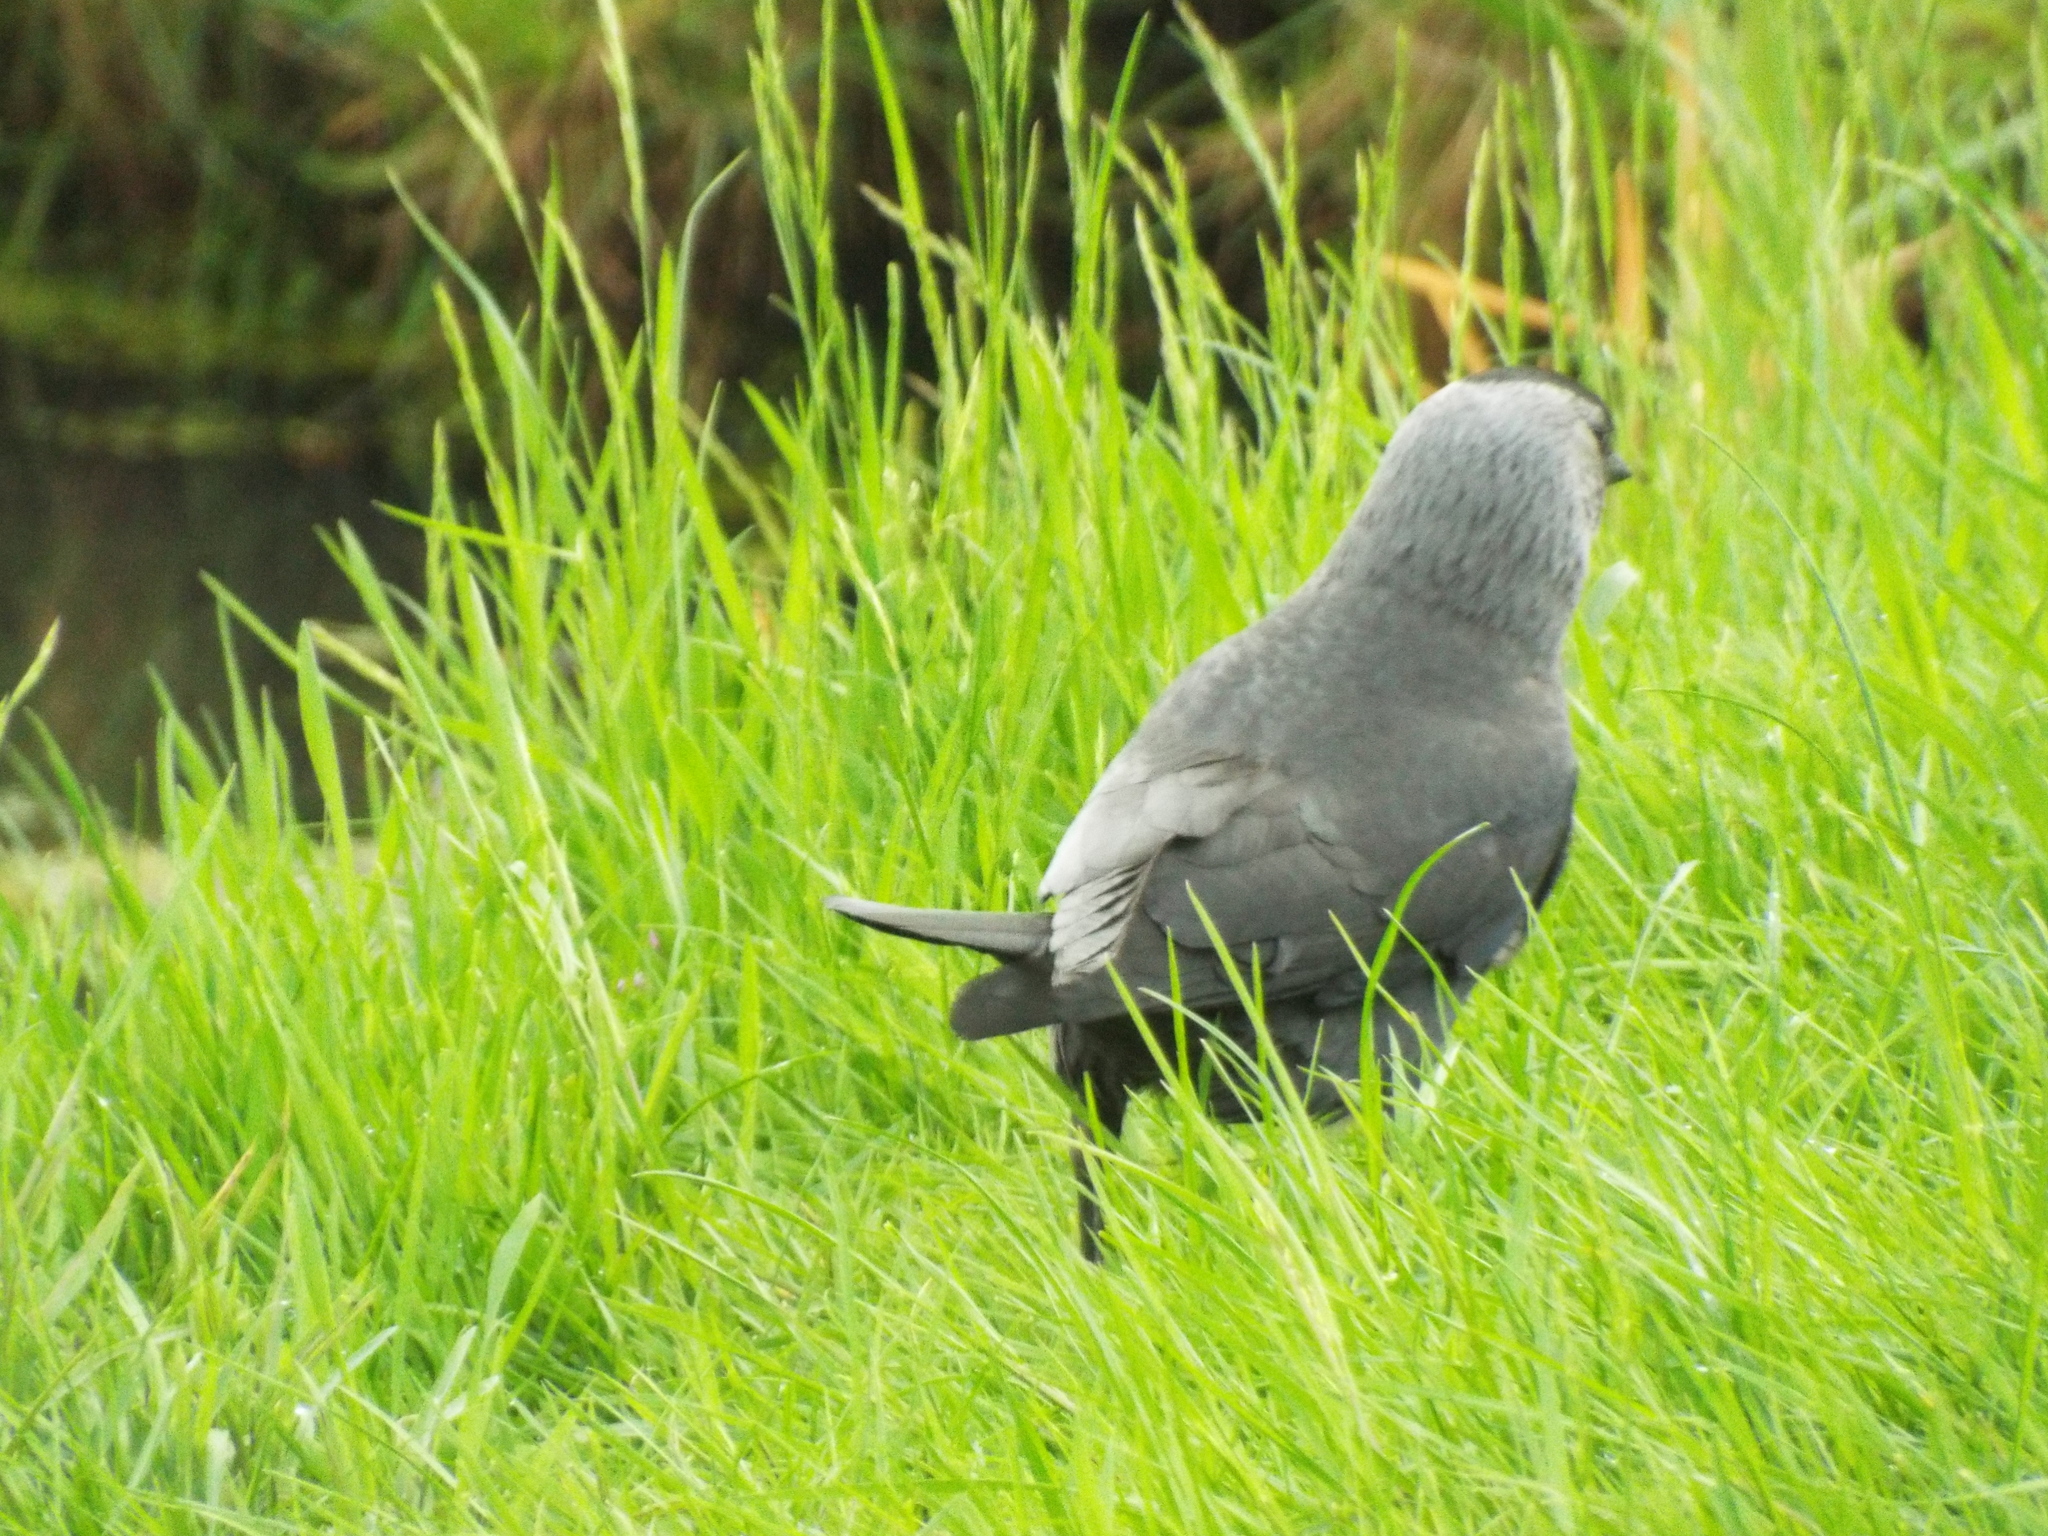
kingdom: Animalia
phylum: Chordata
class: Aves
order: Passeriformes
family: Corvidae
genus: Coloeus
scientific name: Coloeus monedula
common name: Western jackdaw
